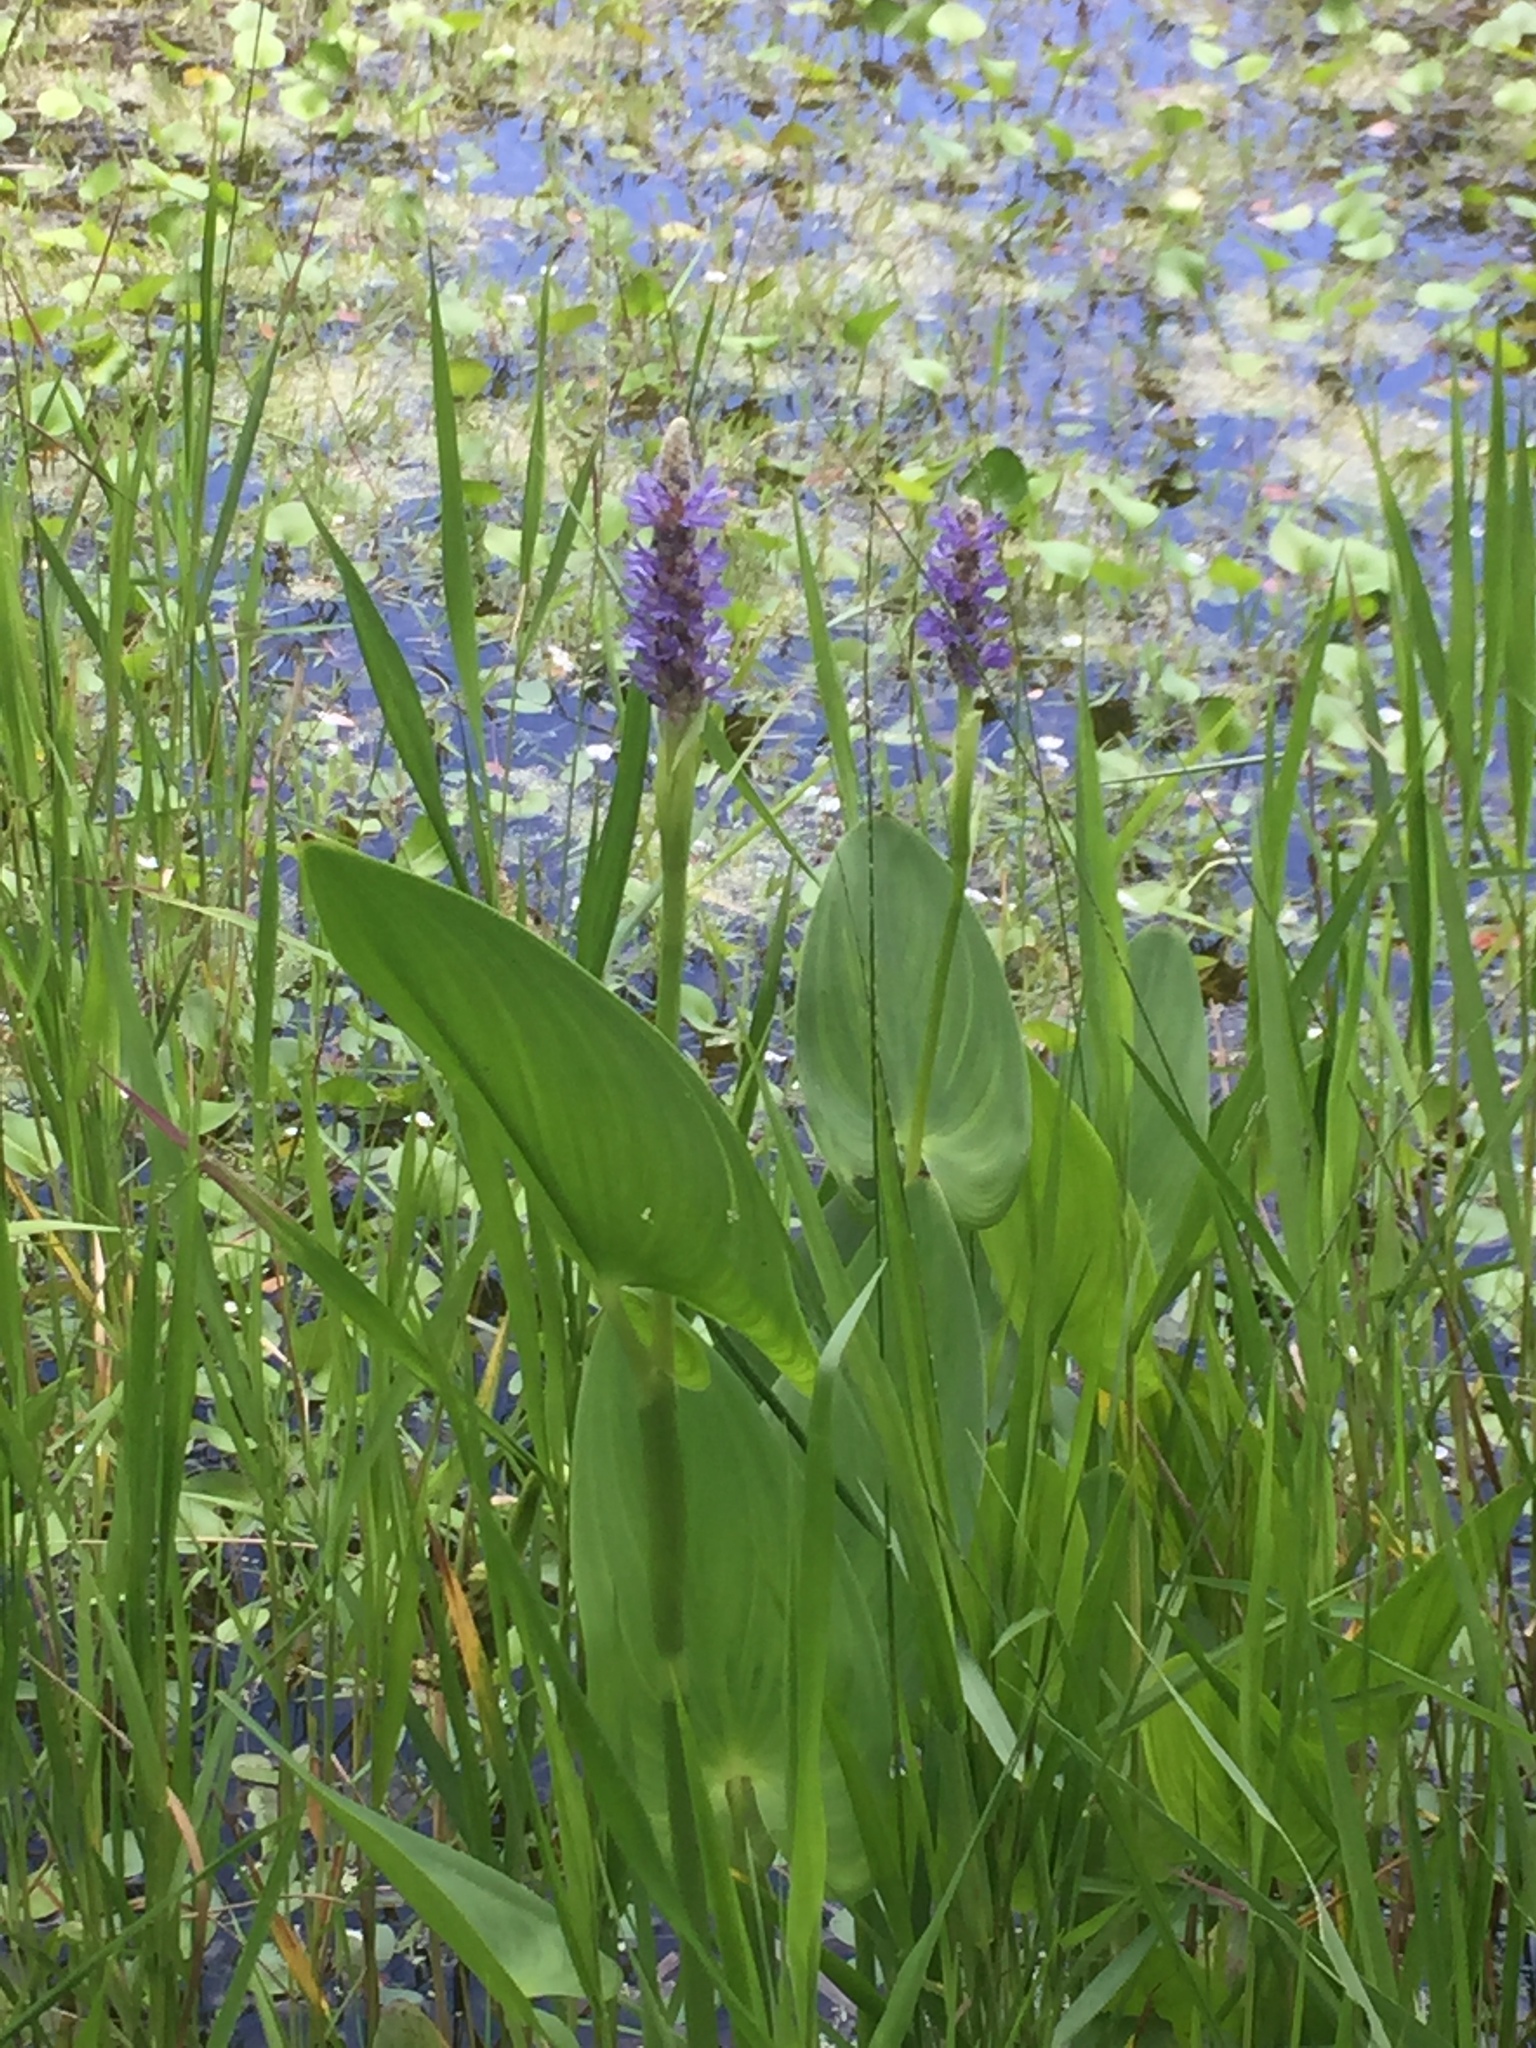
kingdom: Plantae
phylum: Tracheophyta
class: Liliopsida
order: Commelinales
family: Pontederiaceae
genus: Pontederia
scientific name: Pontederia cordata
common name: Pickerelweed
